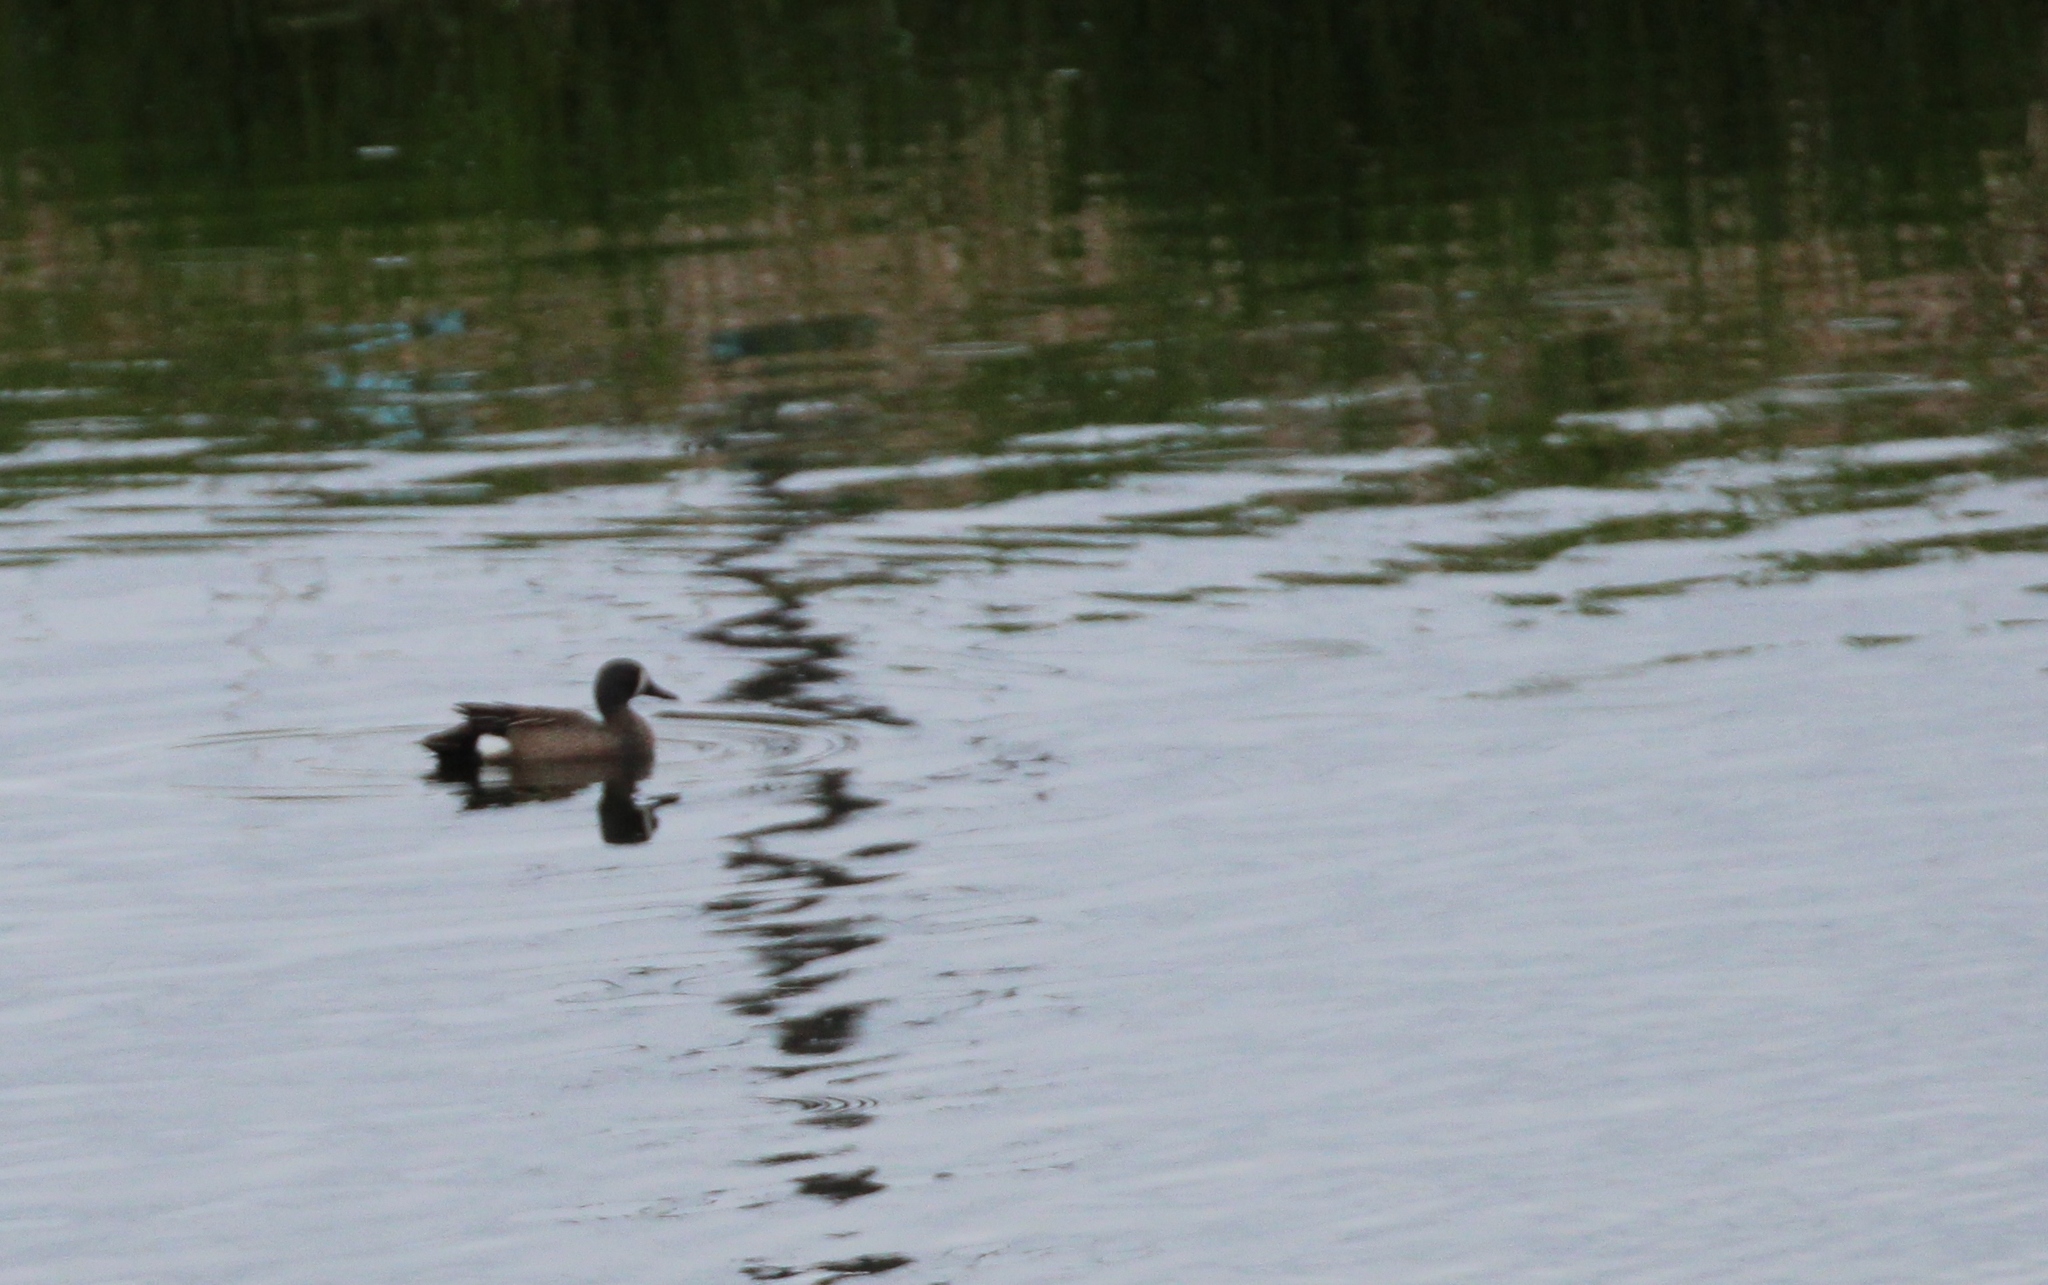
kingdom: Animalia
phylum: Chordata
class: Aves
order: Anseriformes
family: Anatidae
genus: Spatula
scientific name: Spatula discors
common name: Blue-winged teal
